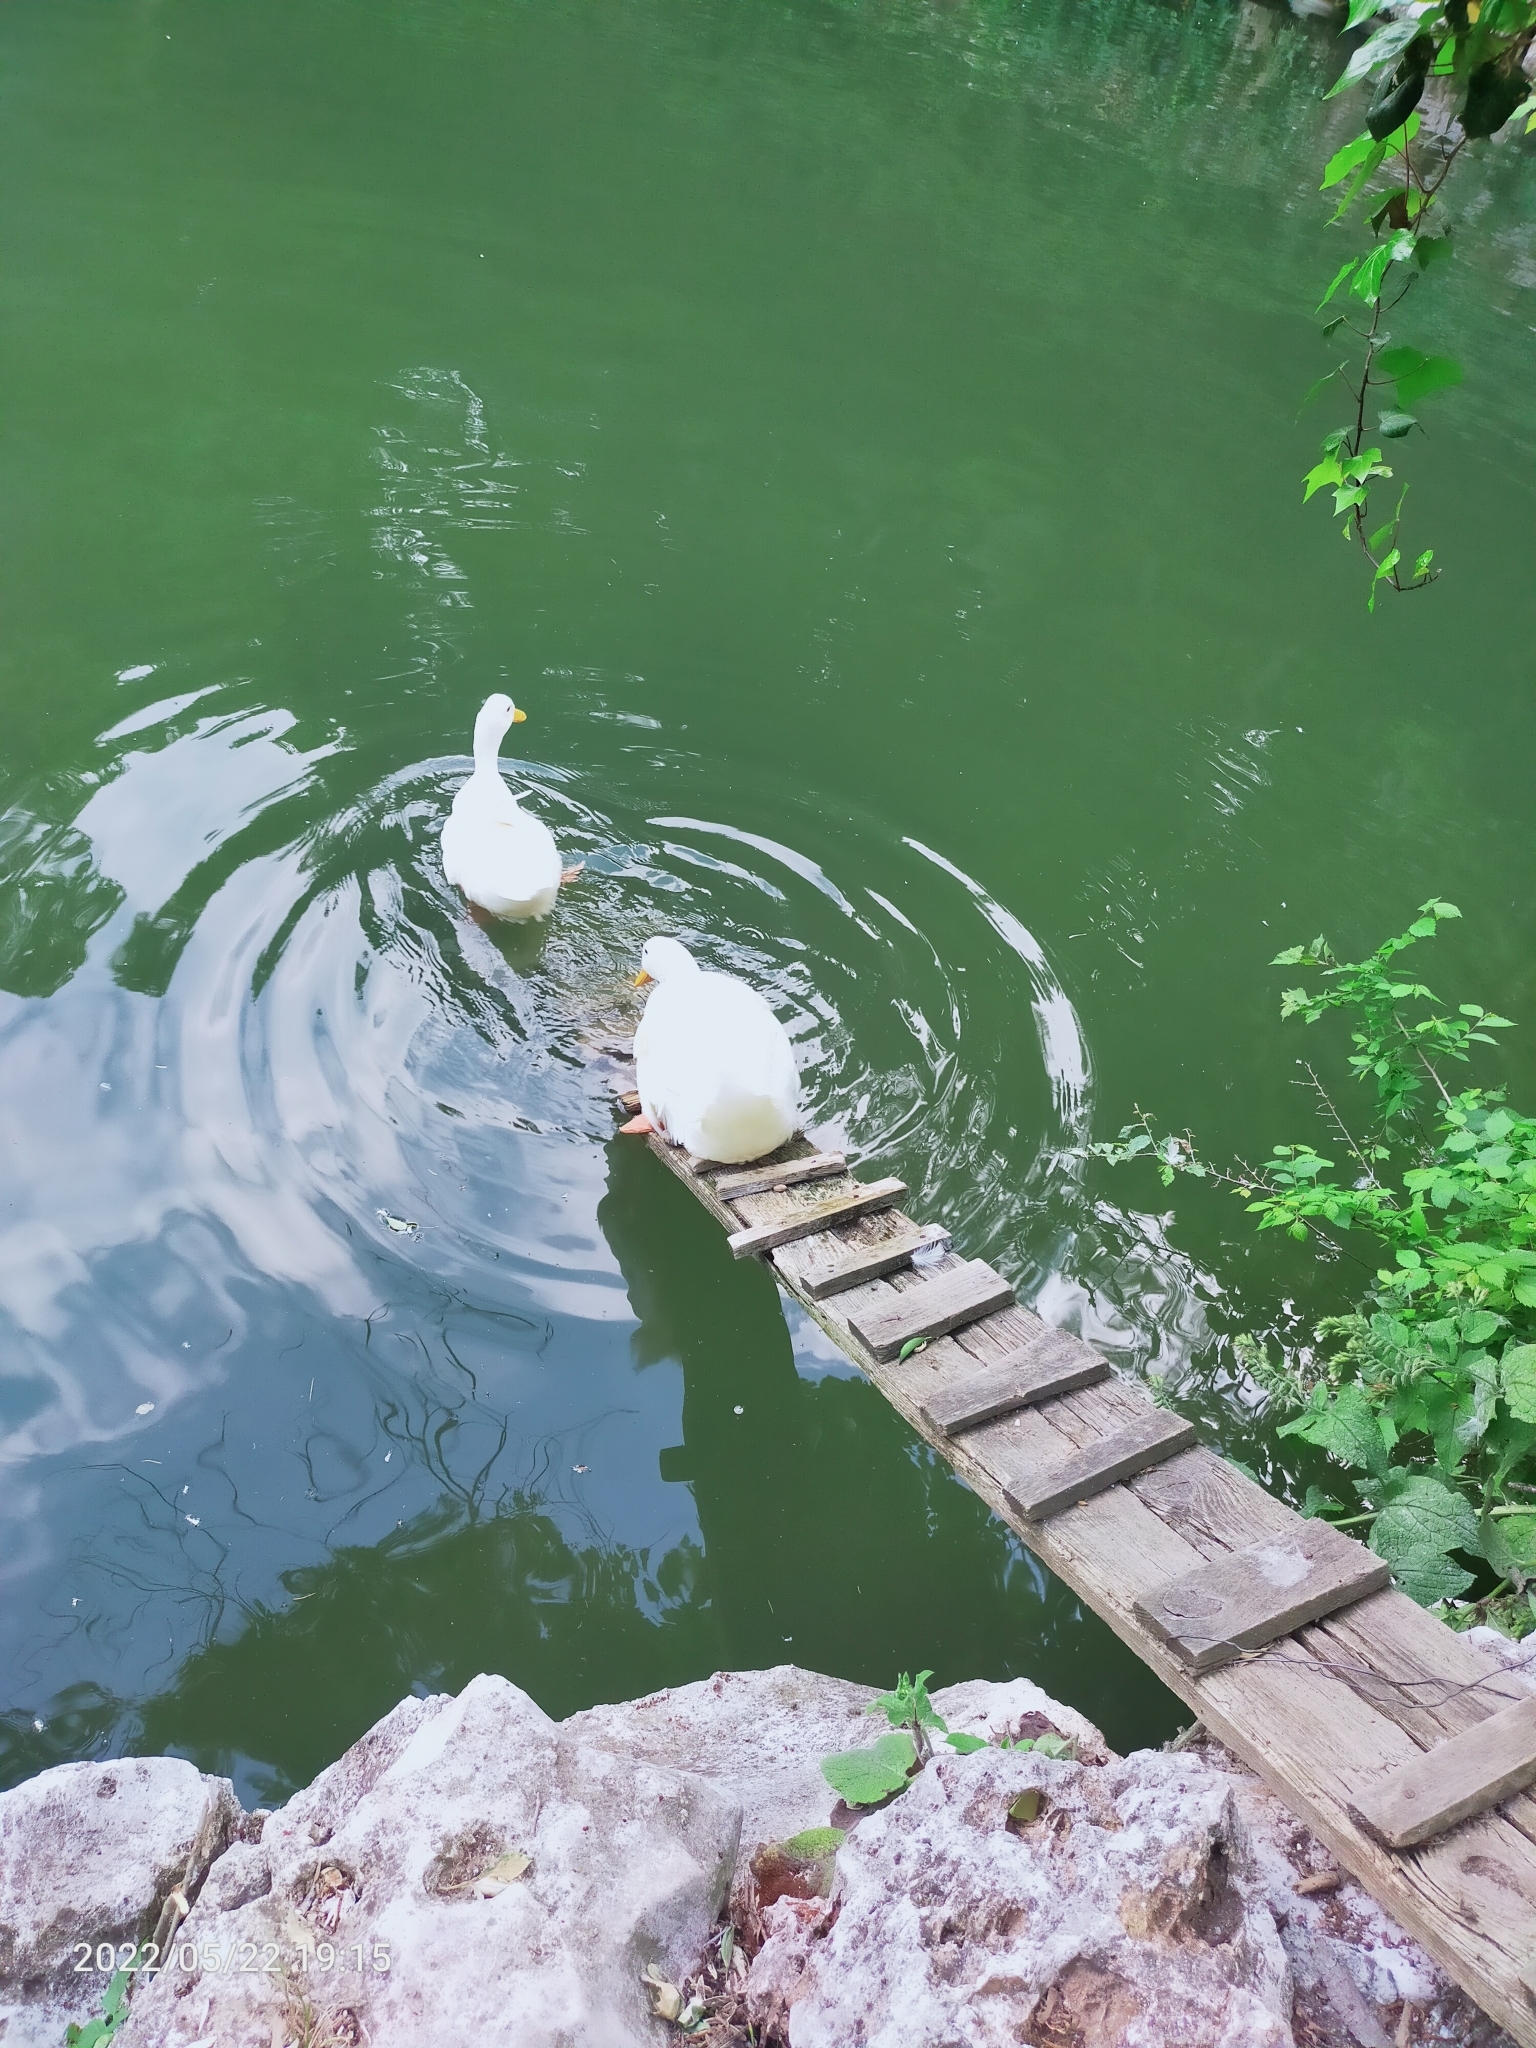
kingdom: Animalia
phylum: Chordata
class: Aves
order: Anseriformes
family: Anatidae
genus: Anas
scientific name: Anas platyrhynchos
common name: Mallard
